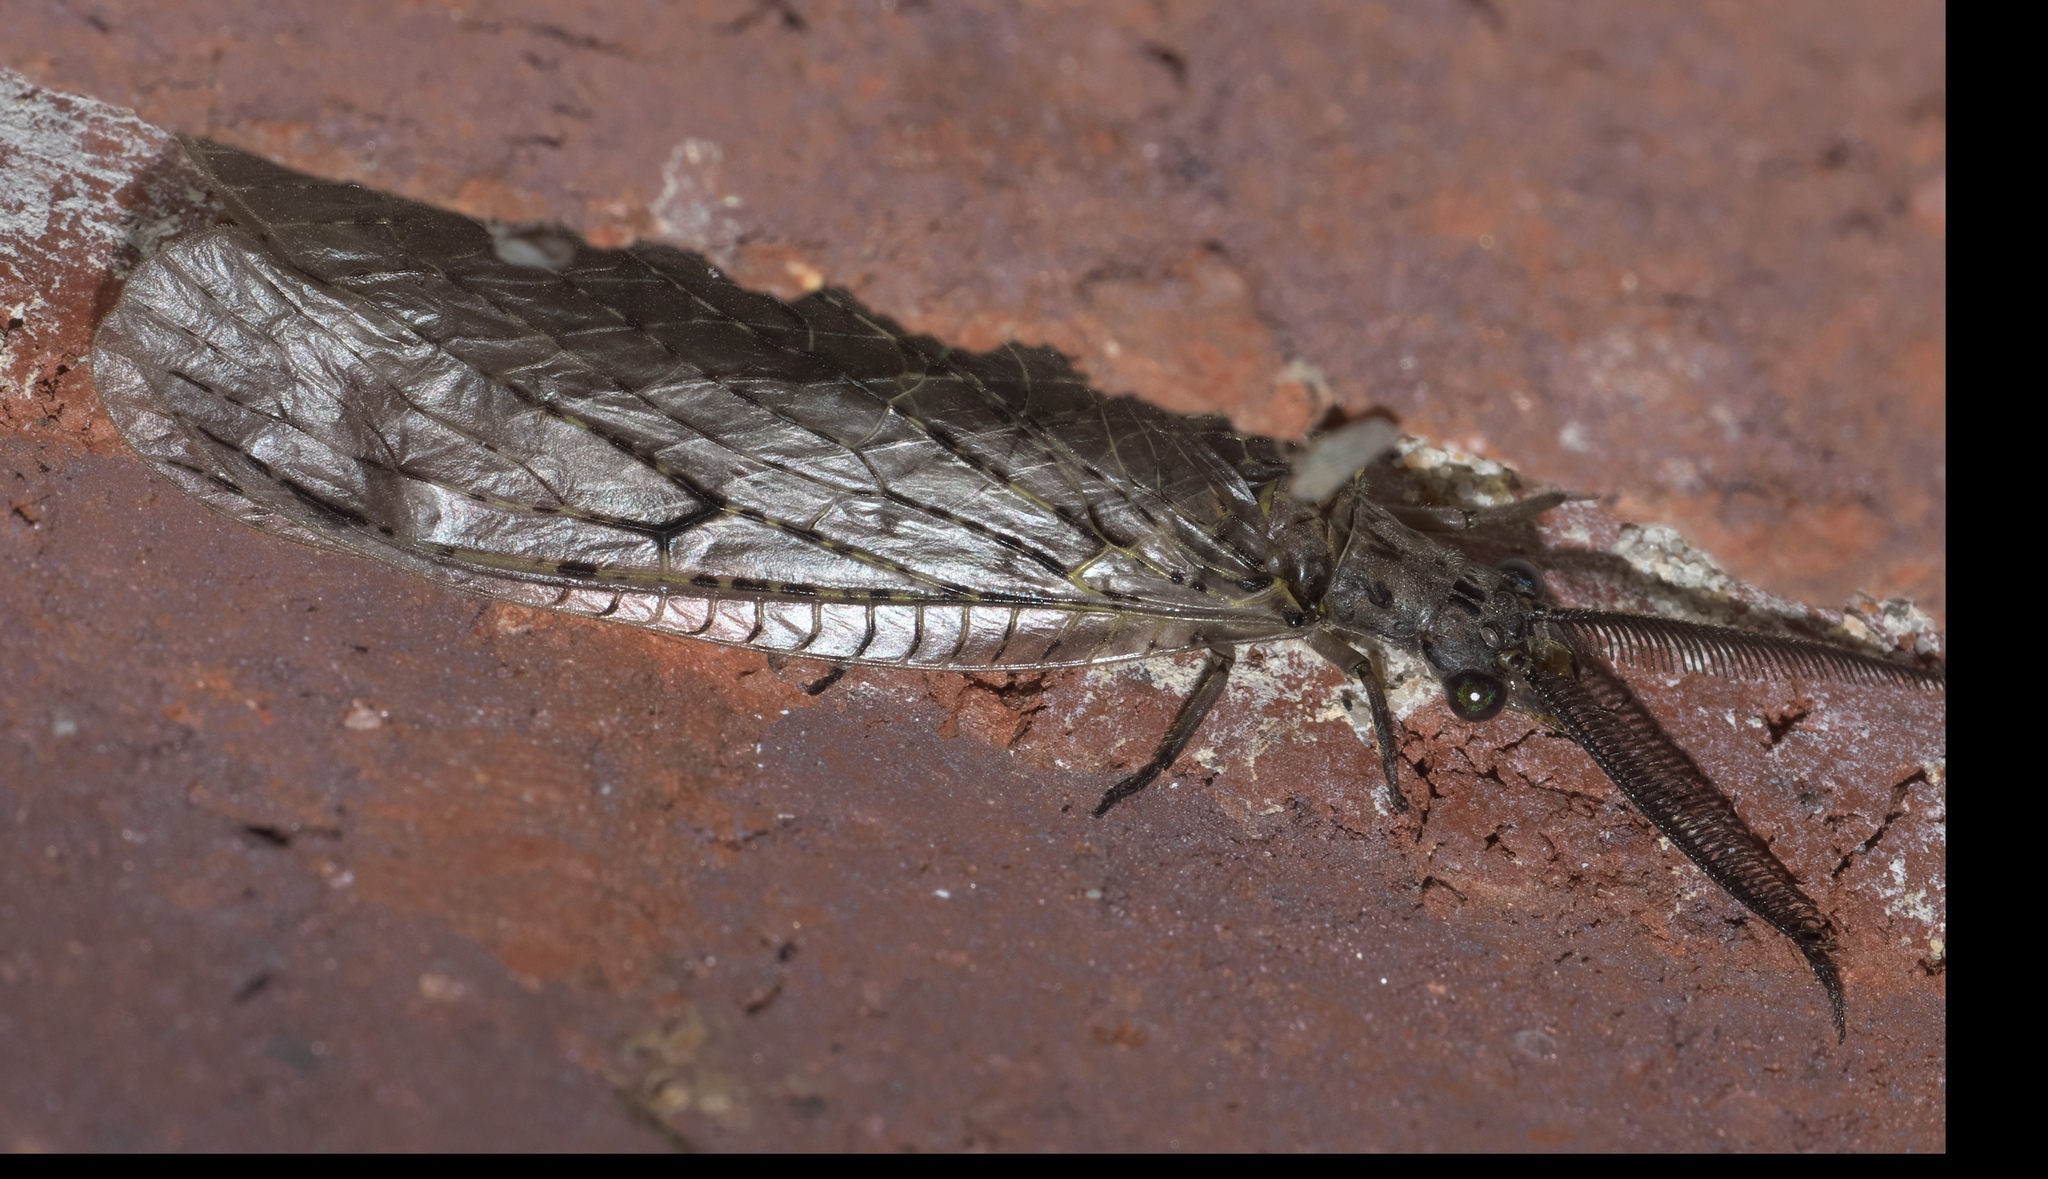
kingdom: Animalia
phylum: Arthropoda
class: Insecta
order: Megaloptera
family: Corydalidae
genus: Chauliodes
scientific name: Chauliodes rastricornis
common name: Spring fishfly
